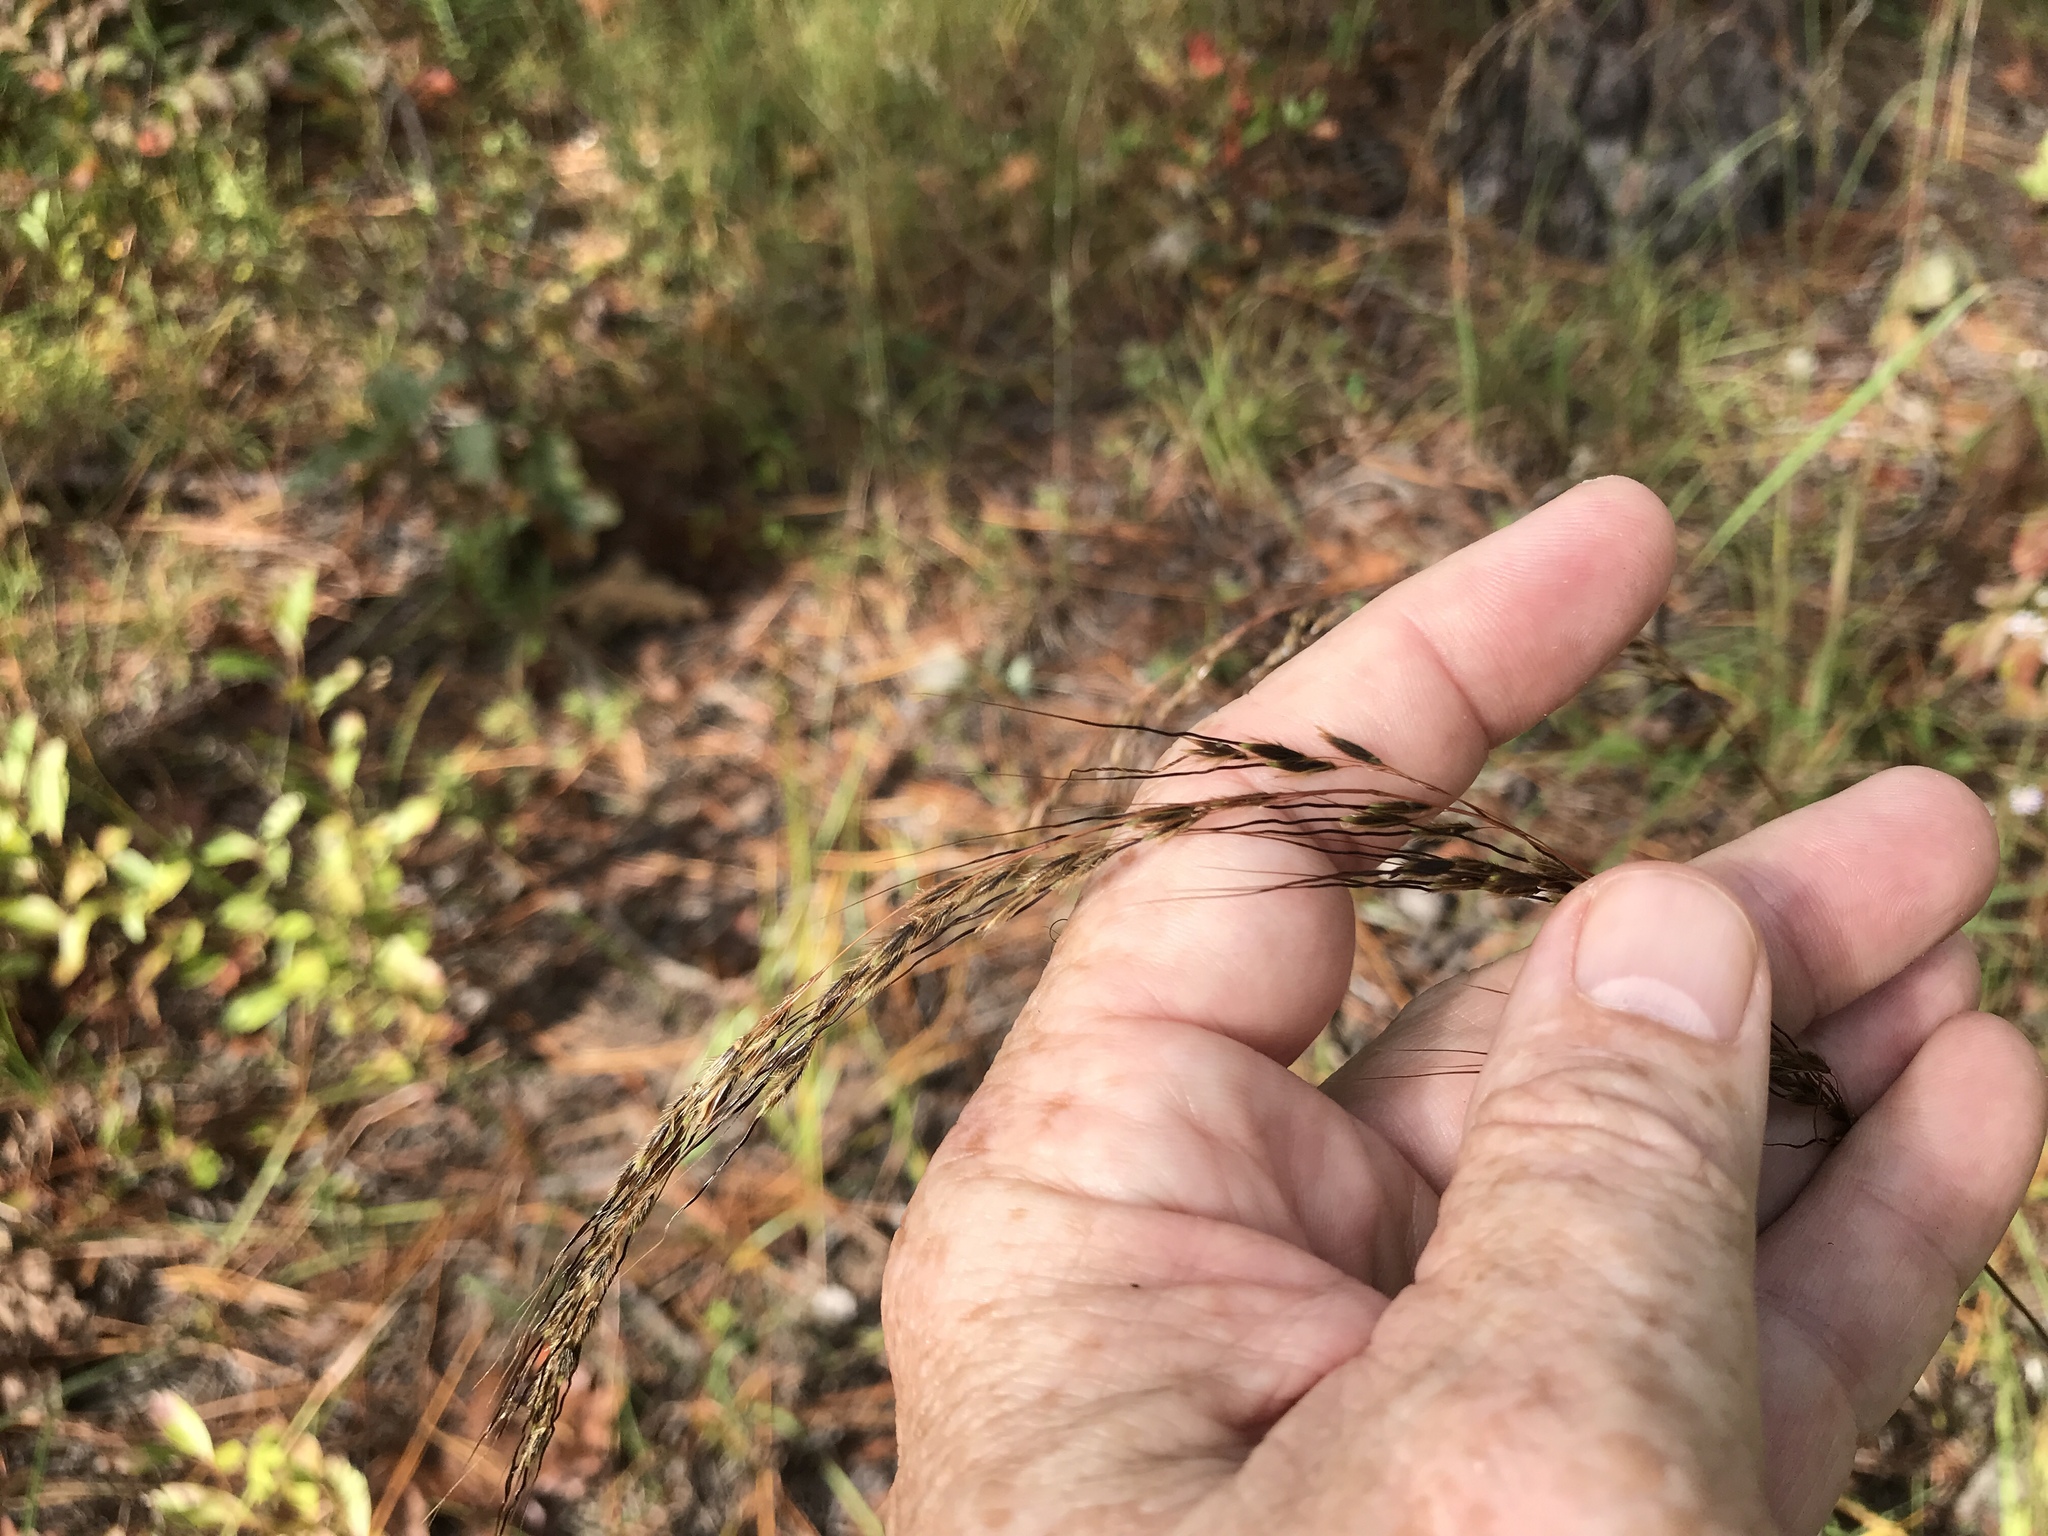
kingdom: Plantae
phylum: Tracheophyta
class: Liliopsida
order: Poales
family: Poaceae
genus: Sorghastrum
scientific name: Sorghastrum elliottii
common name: Slender indian grass
